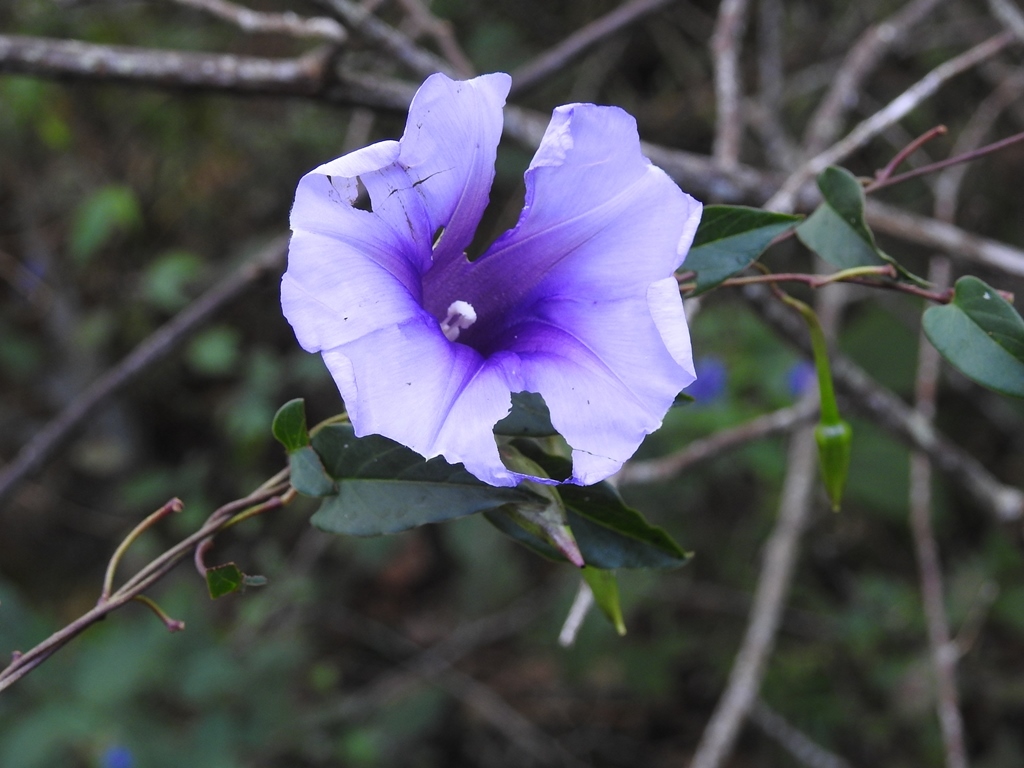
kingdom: Plantae
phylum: Tracheophyta
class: Magnoliopsida
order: Solanales
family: Convolvulaceae
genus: Ipomoea
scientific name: Ipomoea lindenii
